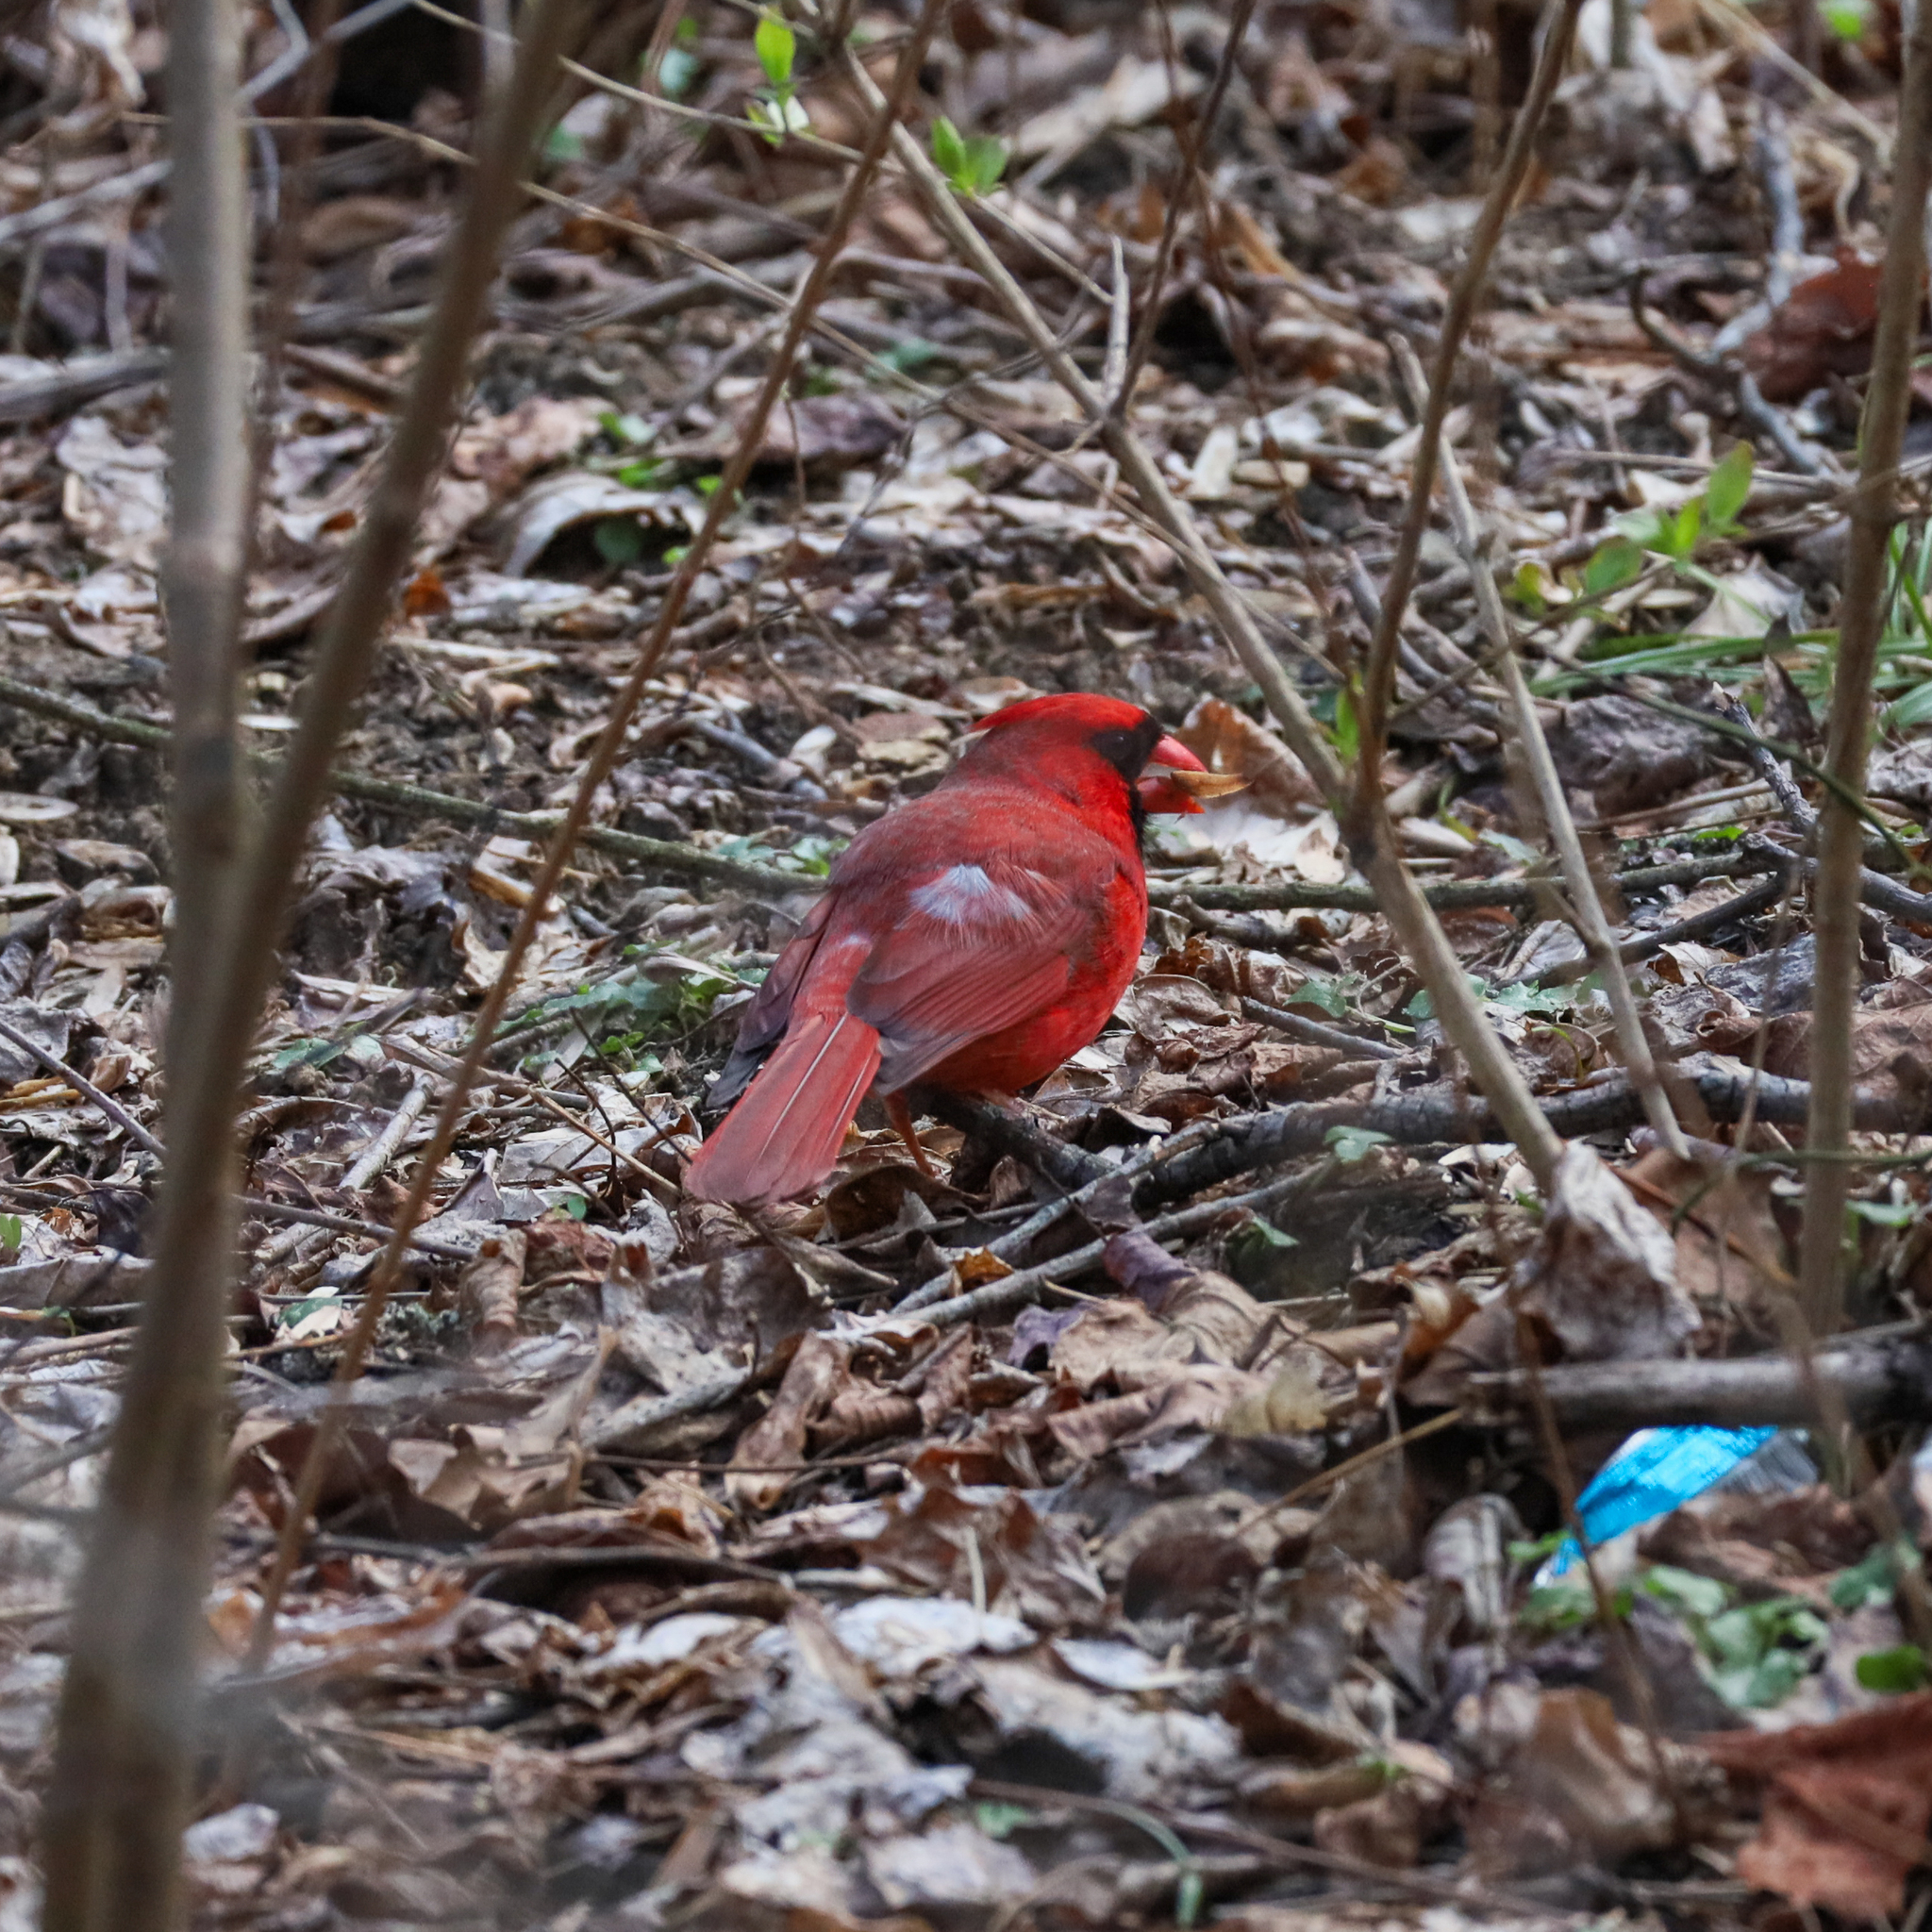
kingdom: Animalia
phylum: Chordata
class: Aves
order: Passeriformes
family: Cardinalidae
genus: Cardinalis
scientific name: Cardinalis cardinalis
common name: Northern cardinal
